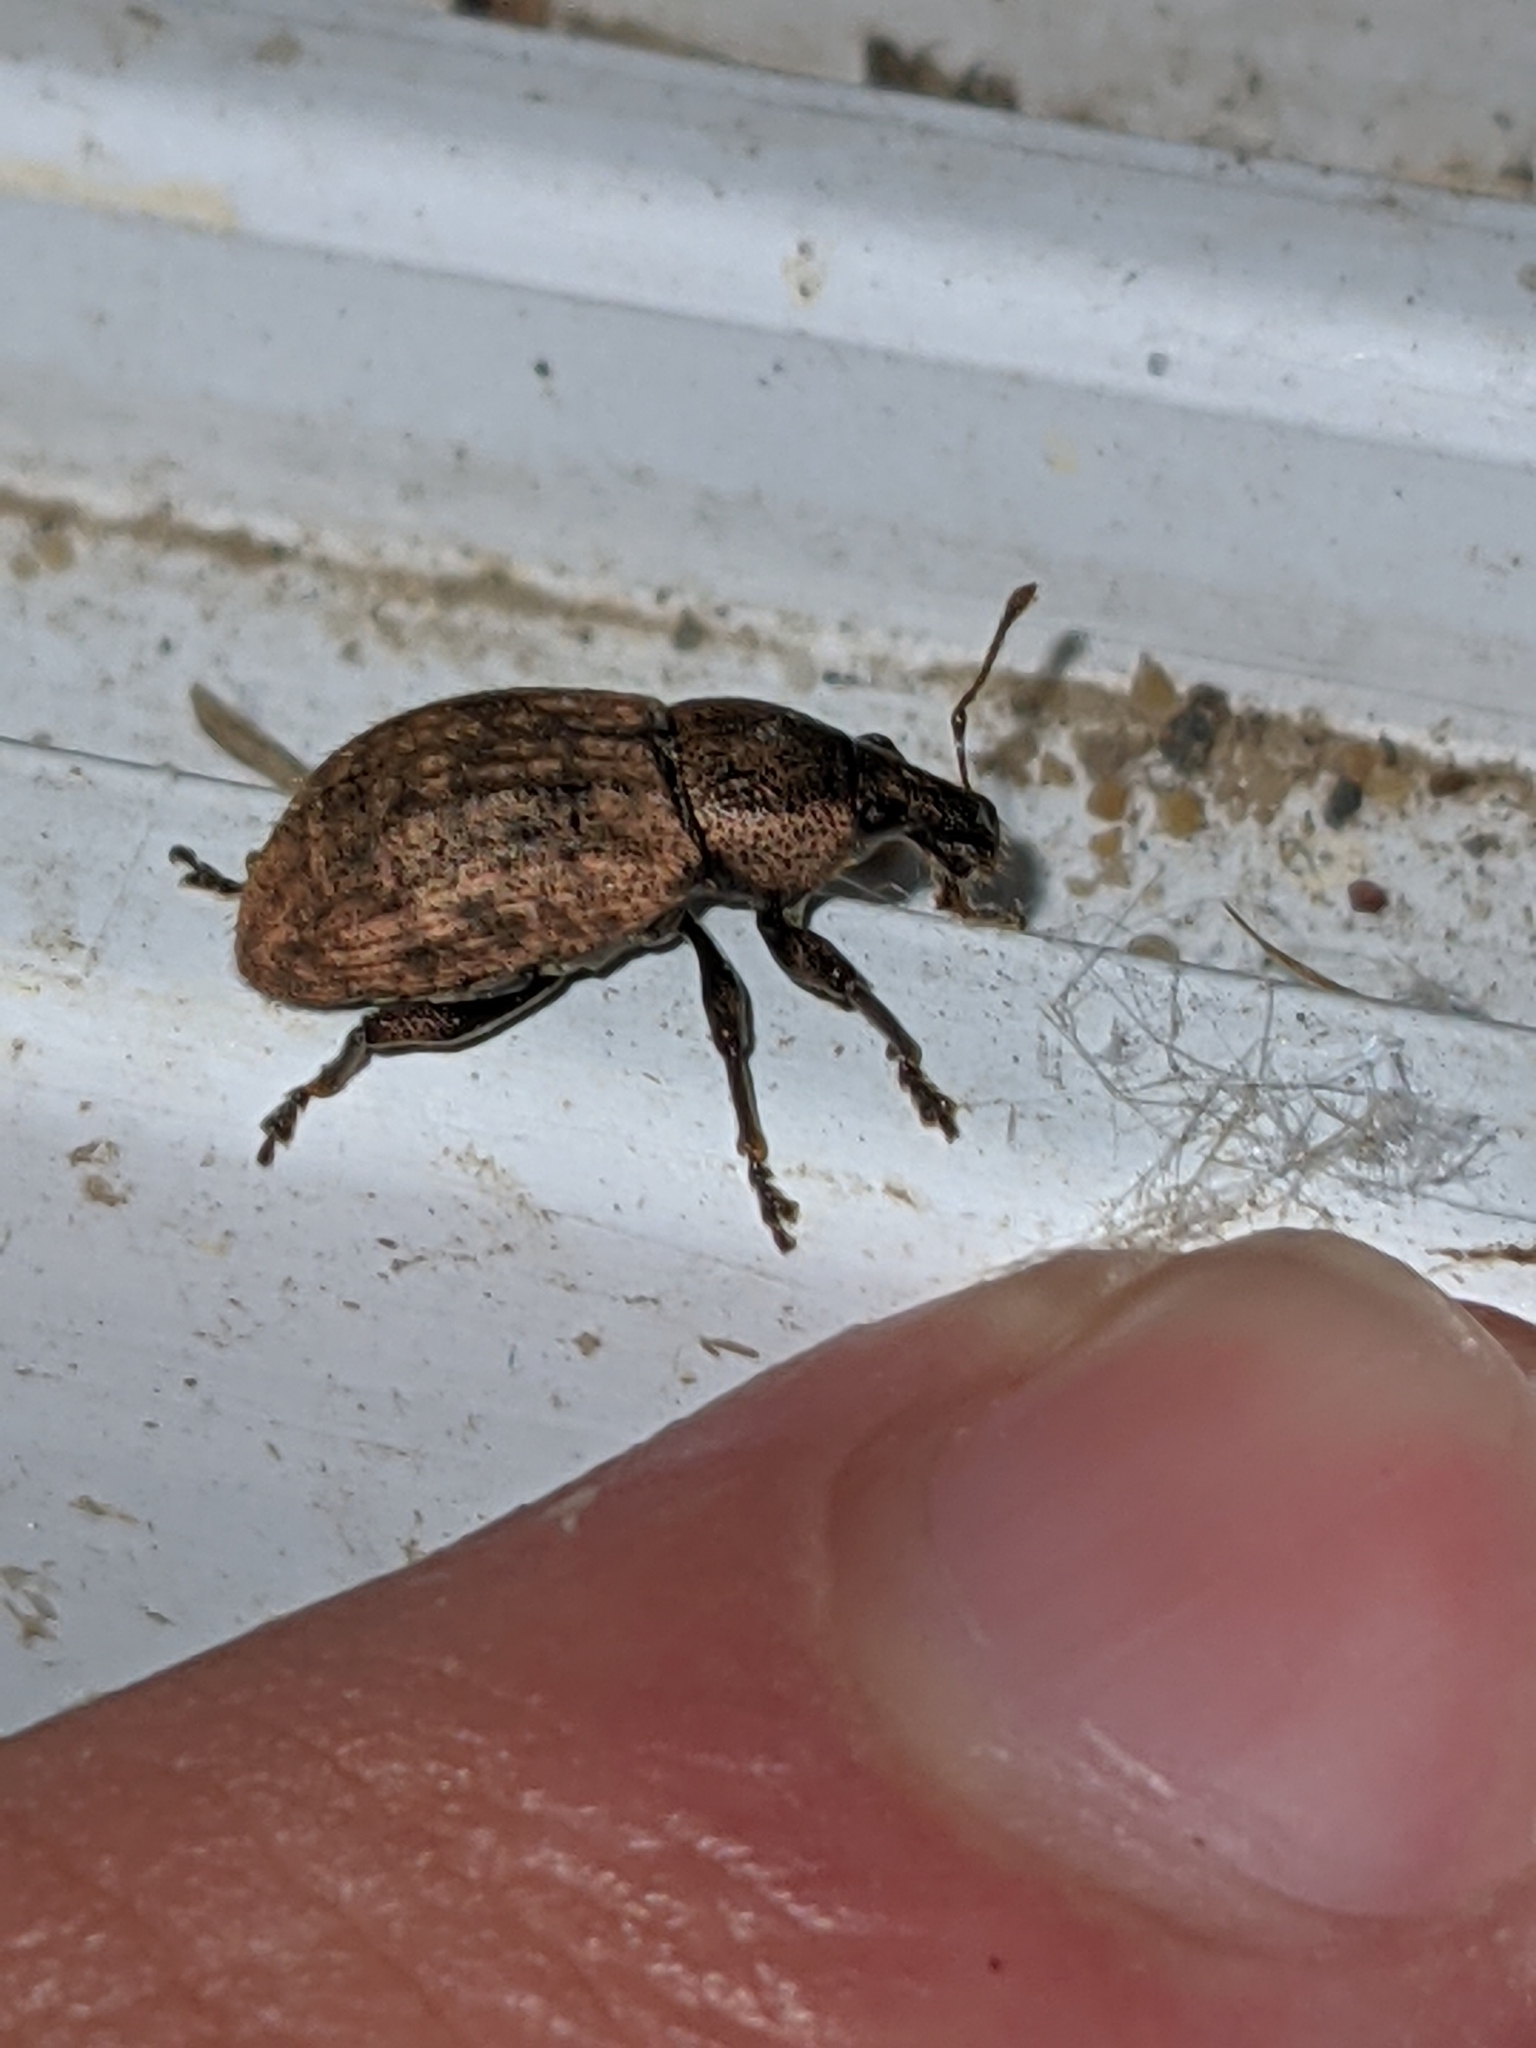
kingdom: Animalia
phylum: Arthropoda
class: Insecta
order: Coleoptera
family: Curculionidae
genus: Barynotus
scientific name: Barynotus obscurus
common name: Weevil
